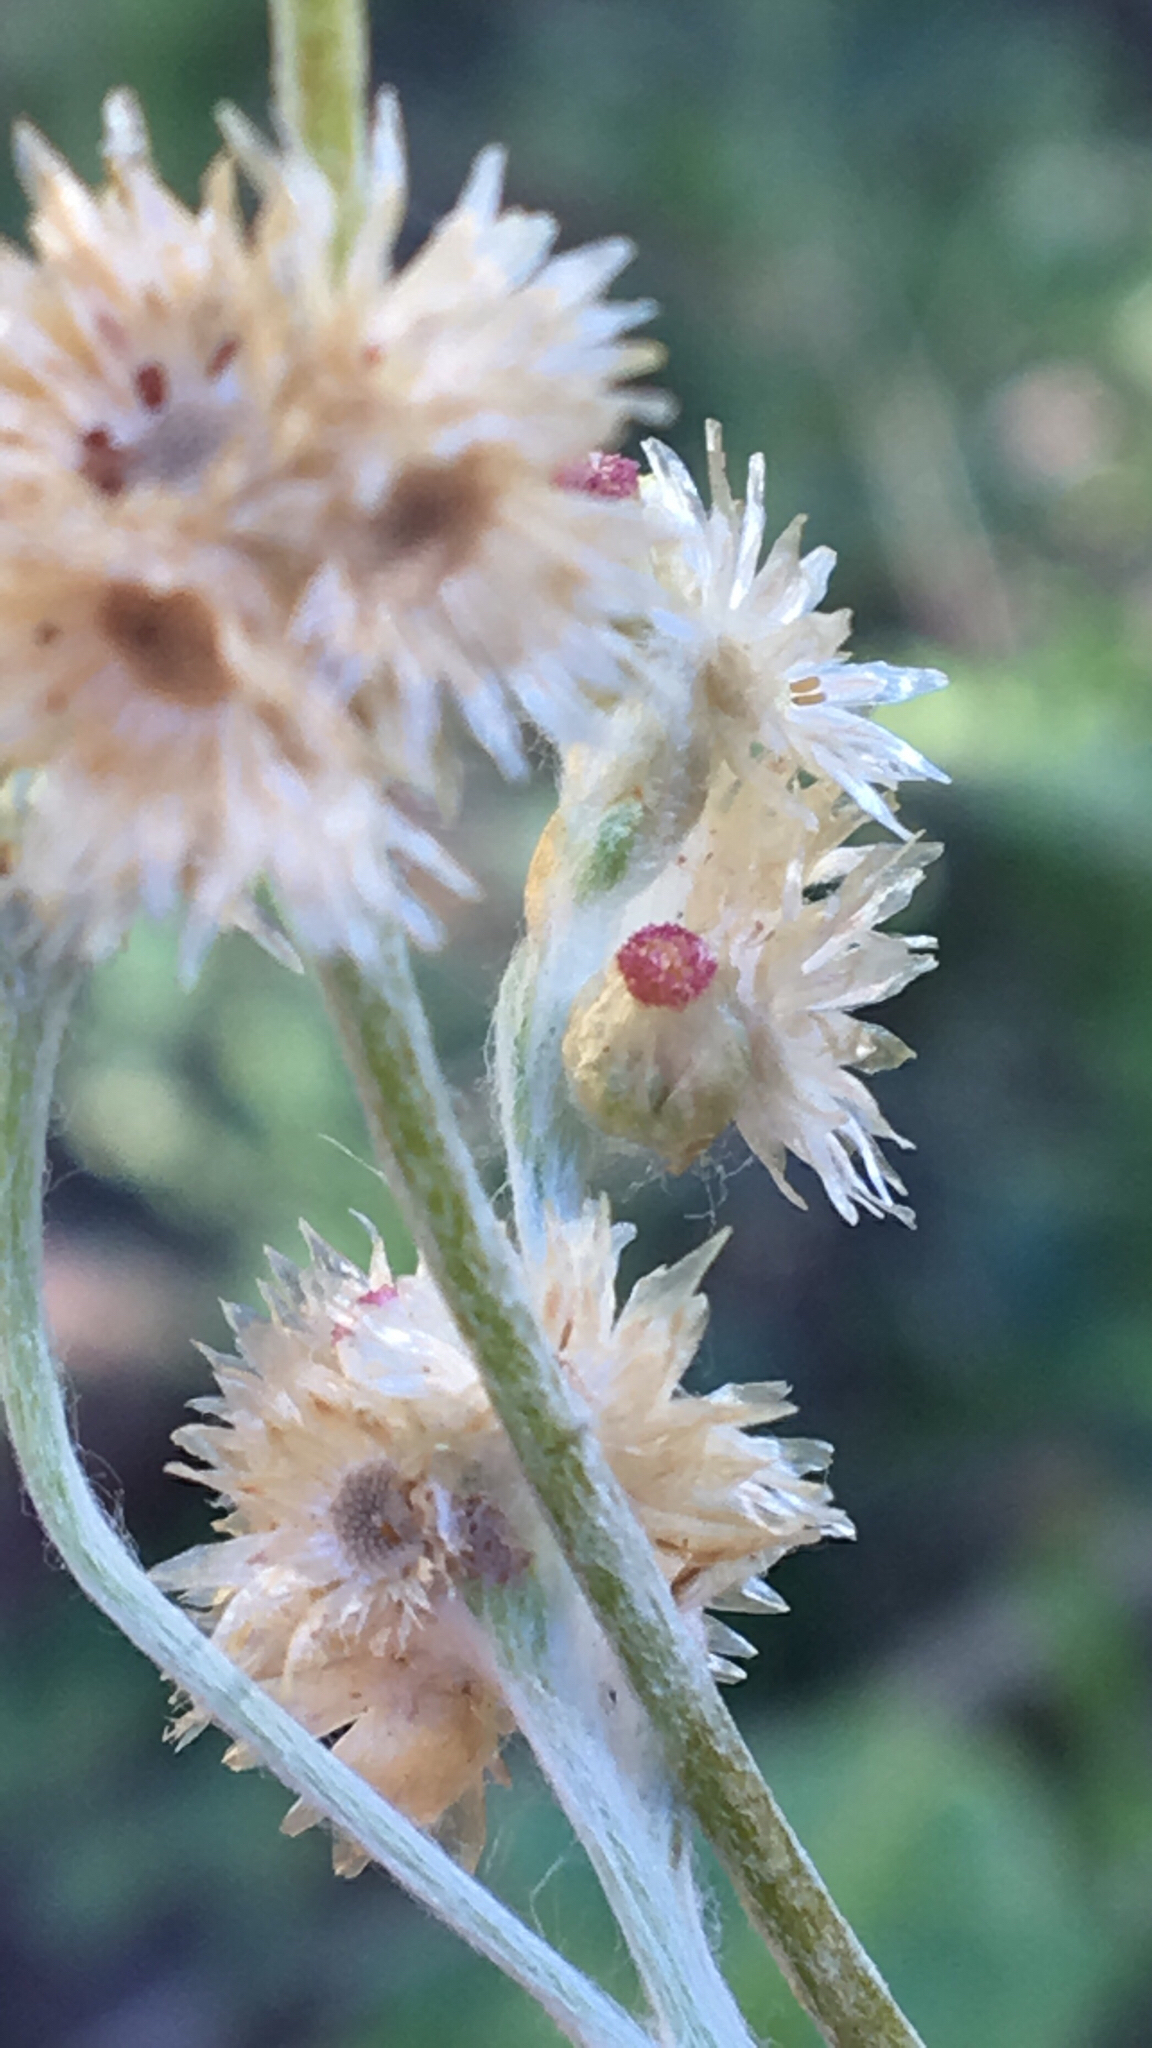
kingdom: Plantae
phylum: Tracheophyta
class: Magnoliopsida
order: Asterales
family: Asteraceae
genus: Helichrysum
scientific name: Helichrysum luteoalbum
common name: Daisy
